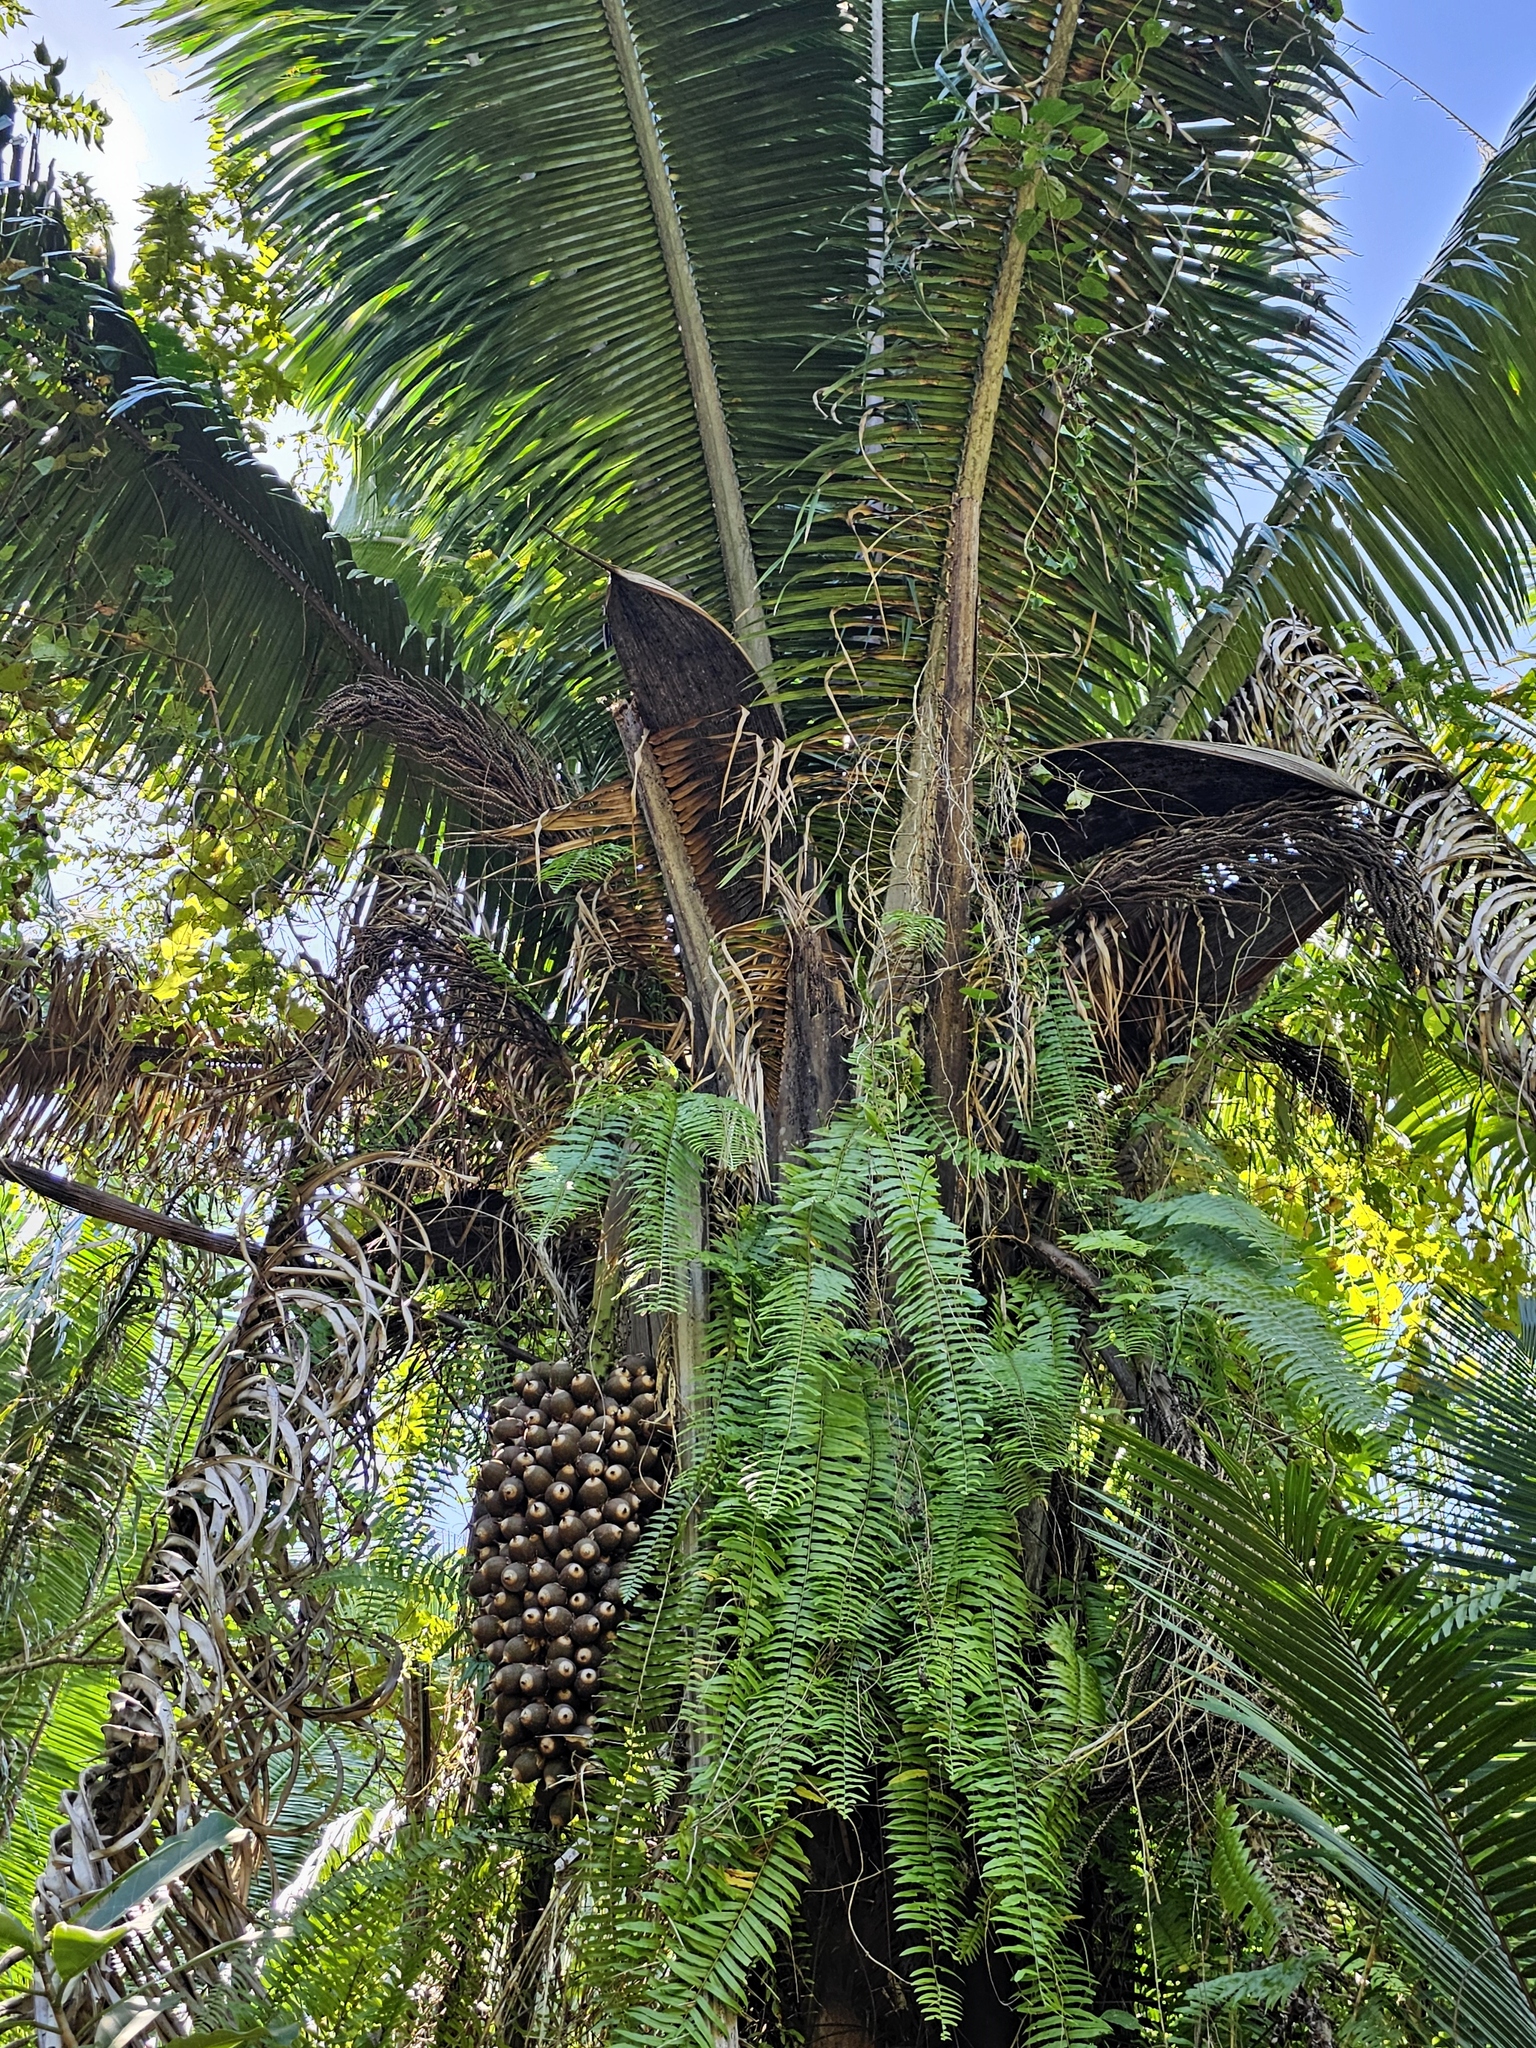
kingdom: Plantae
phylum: Tracheophyta
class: Liliopsida
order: Arecales
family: Arecaceae
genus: Attalea
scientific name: Attalea cohune
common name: Cohune palm
